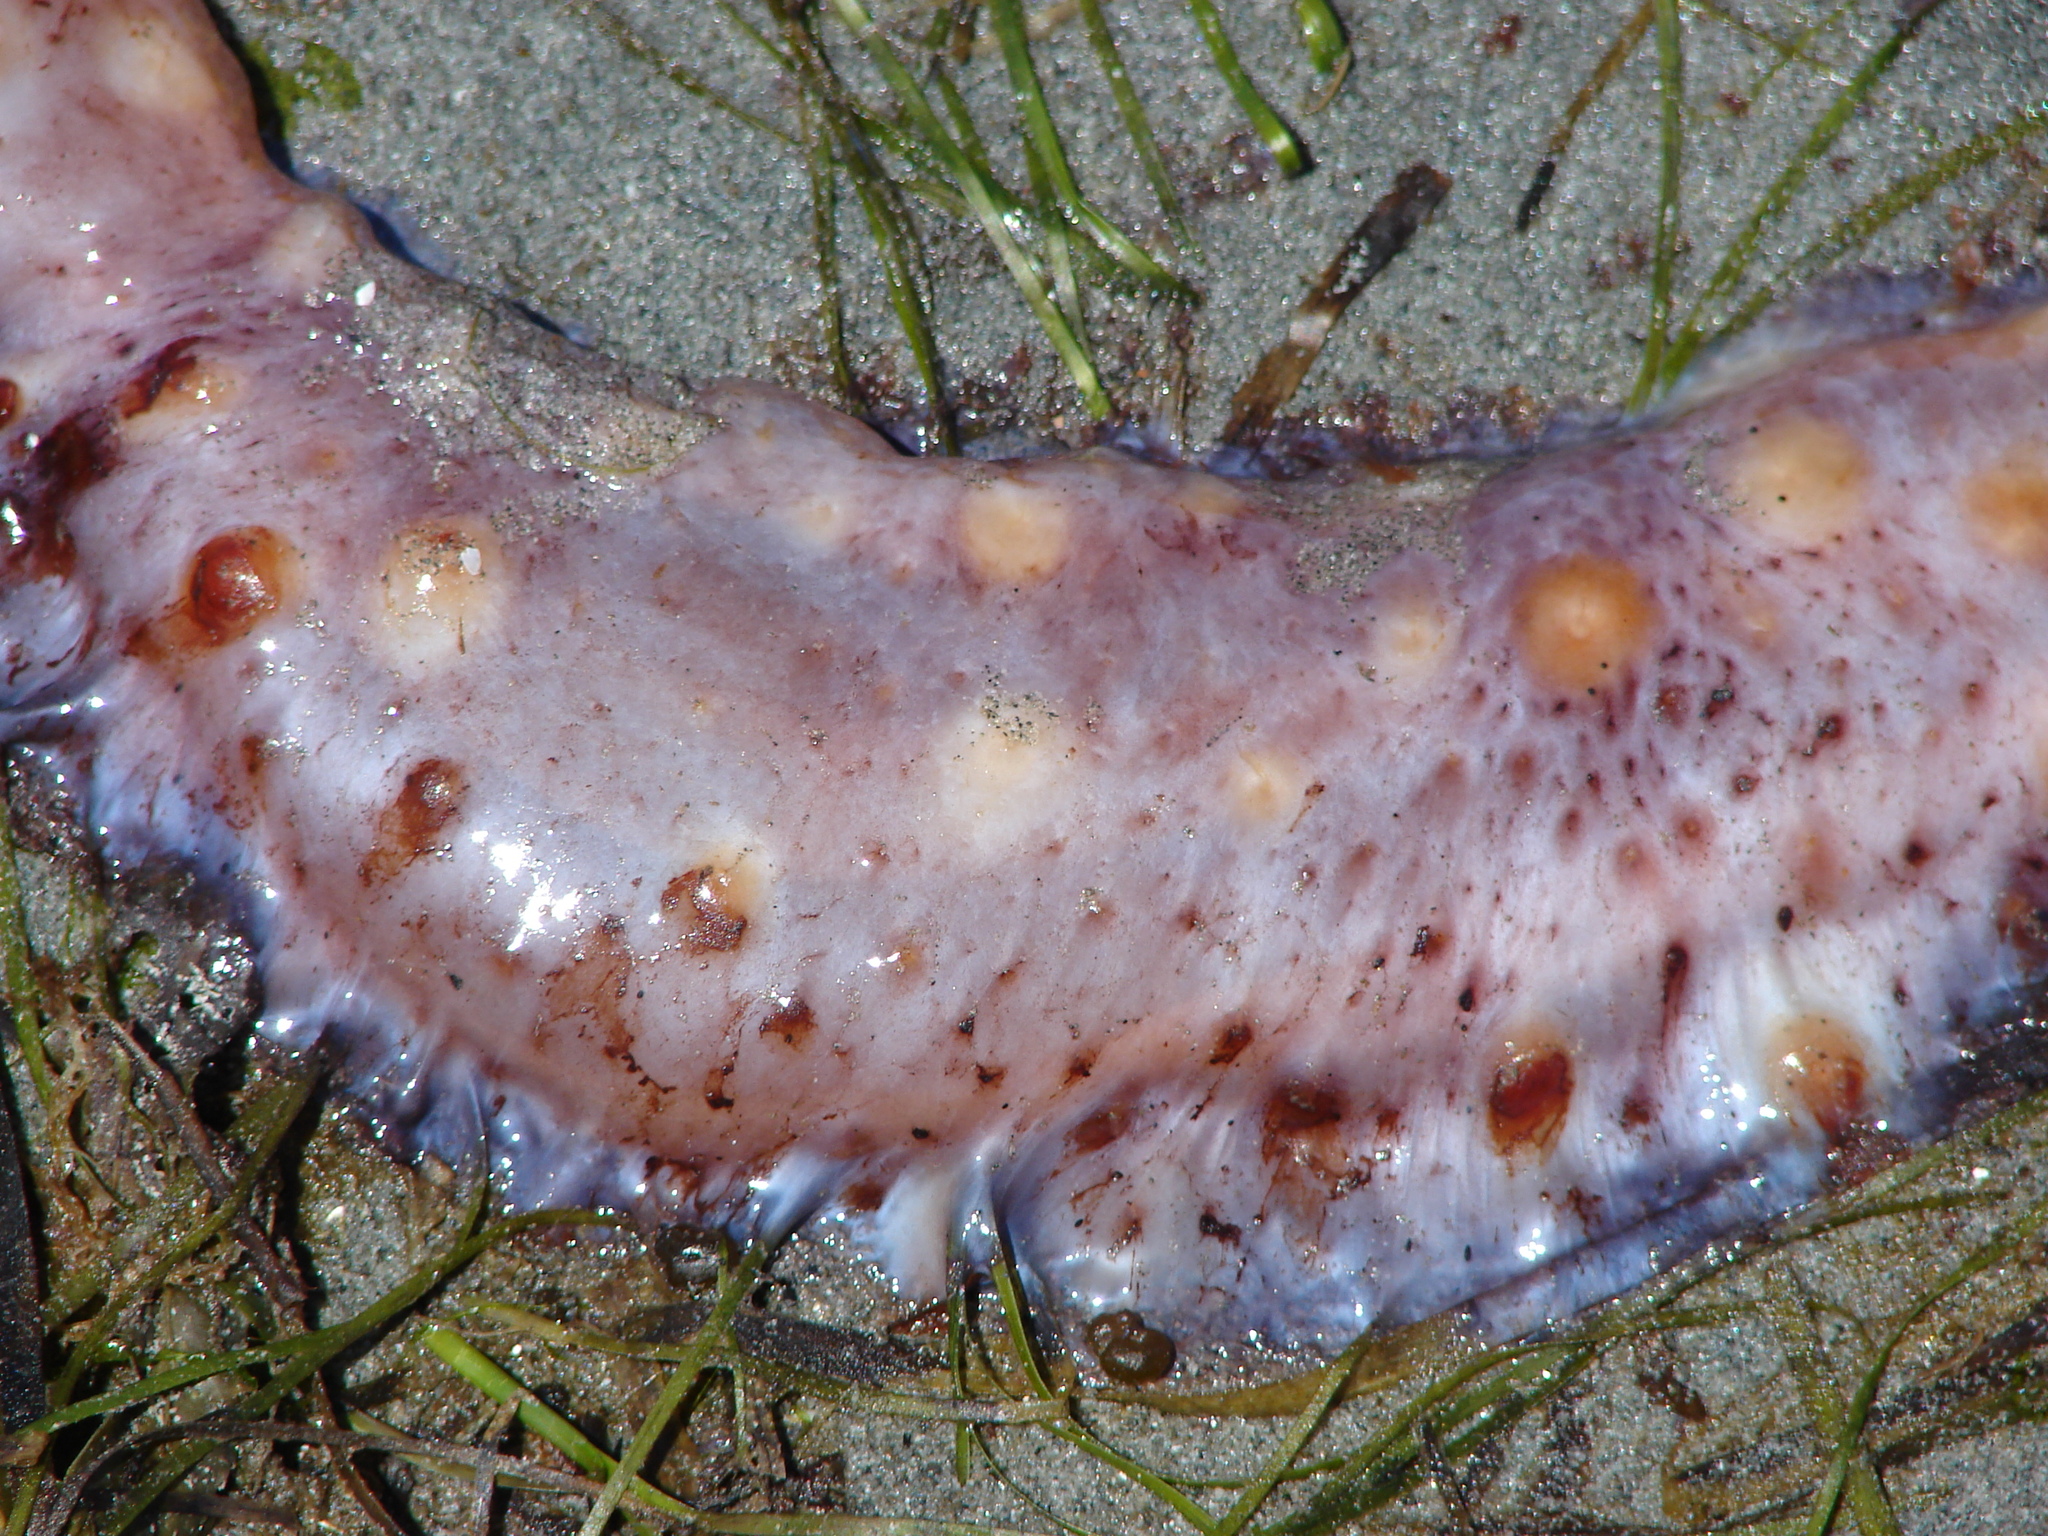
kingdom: Animalia
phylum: Echinodermata
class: Holothuroidea
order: Synallactida
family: Stichopodidae
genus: Apostichopus
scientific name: Apostichopus californicus
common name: California sea cucumber
